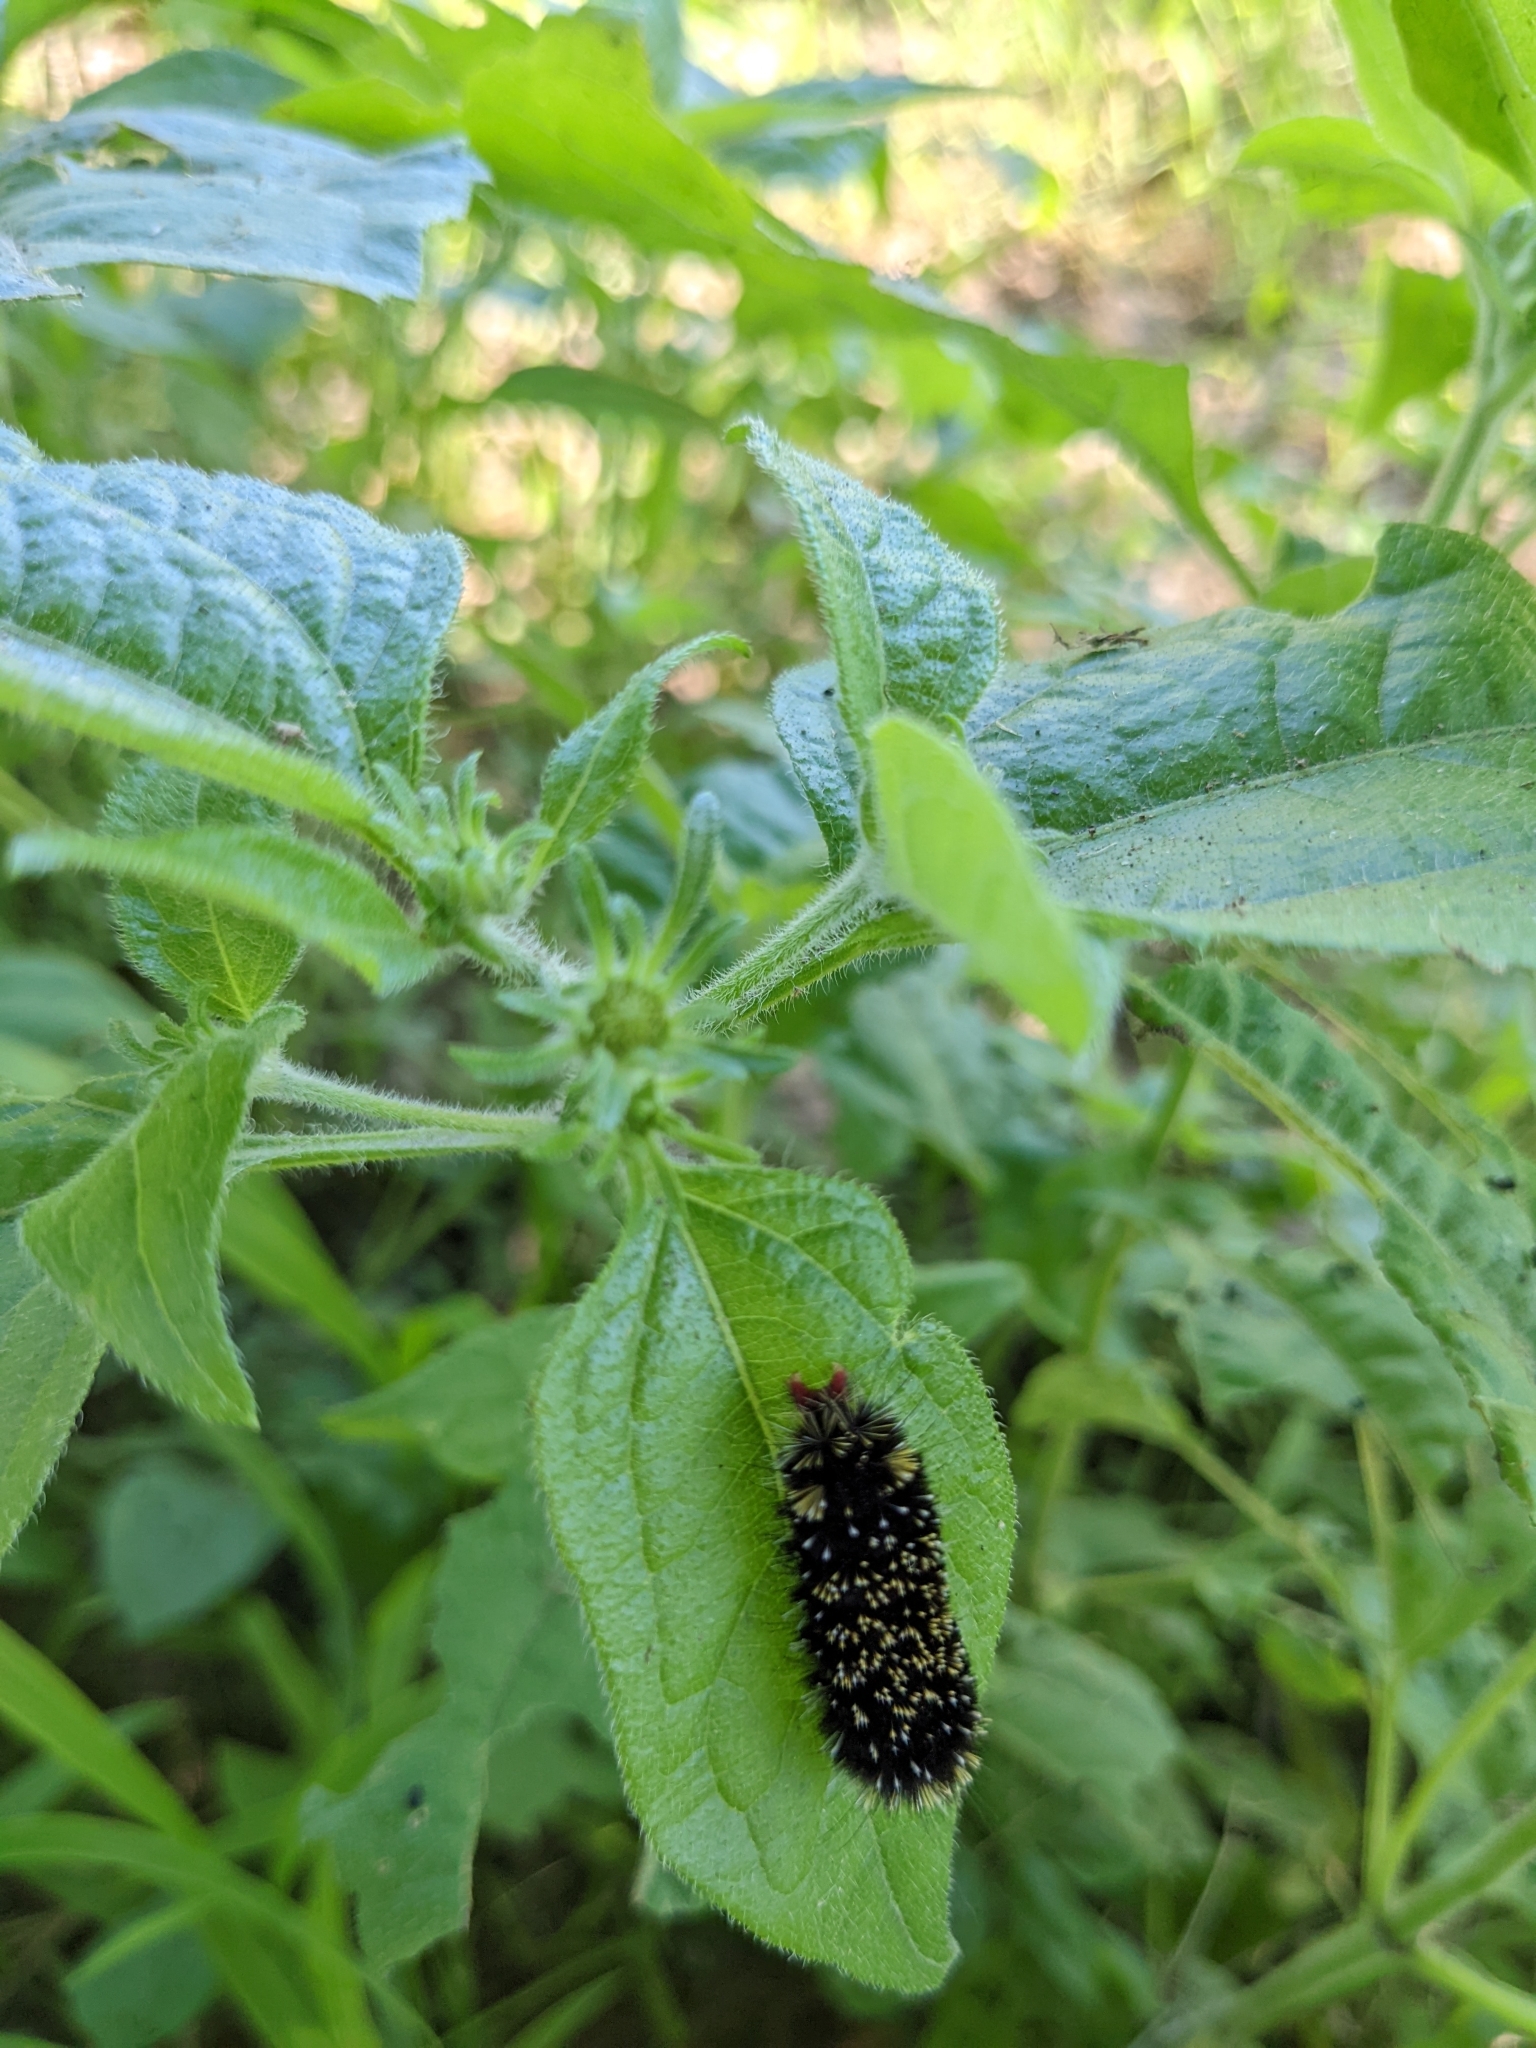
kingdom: Animalia
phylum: Arthropoda
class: Insecta
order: Lepidoptera
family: Erebidae
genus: Hypocrisias
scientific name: Hypocrisias minima
